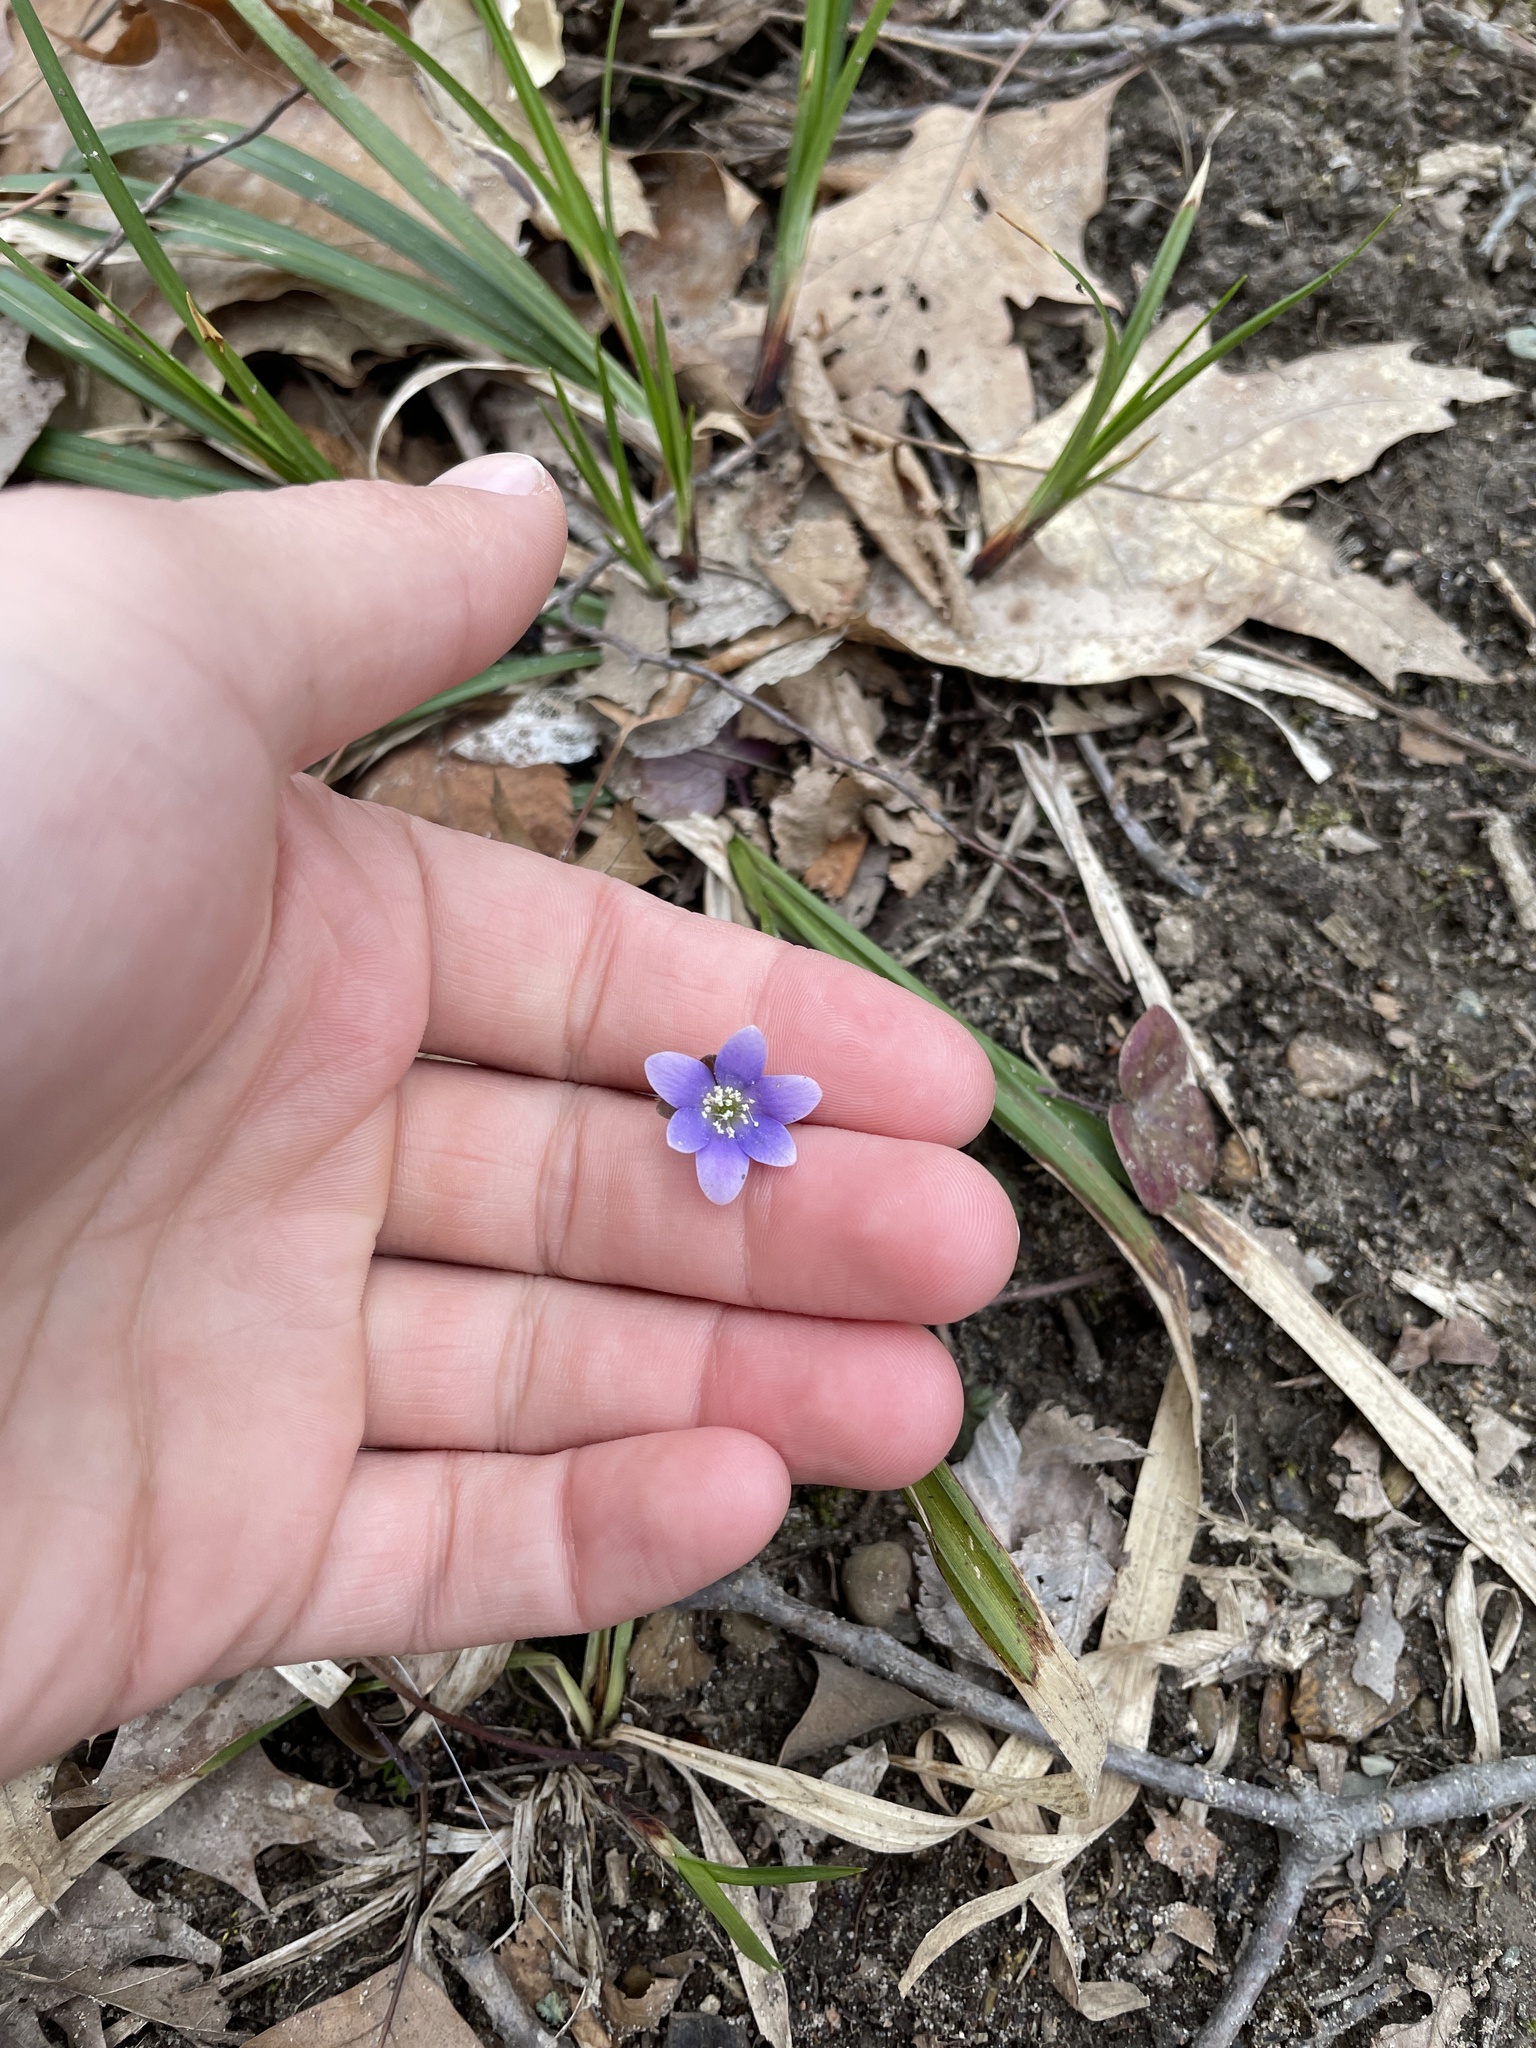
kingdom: Plantae
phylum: Tracheophyta
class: Magnoliopsida
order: Ranunculales
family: Ranunculaceae
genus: Hepatica
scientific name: Hepatica americana
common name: American hepatica
